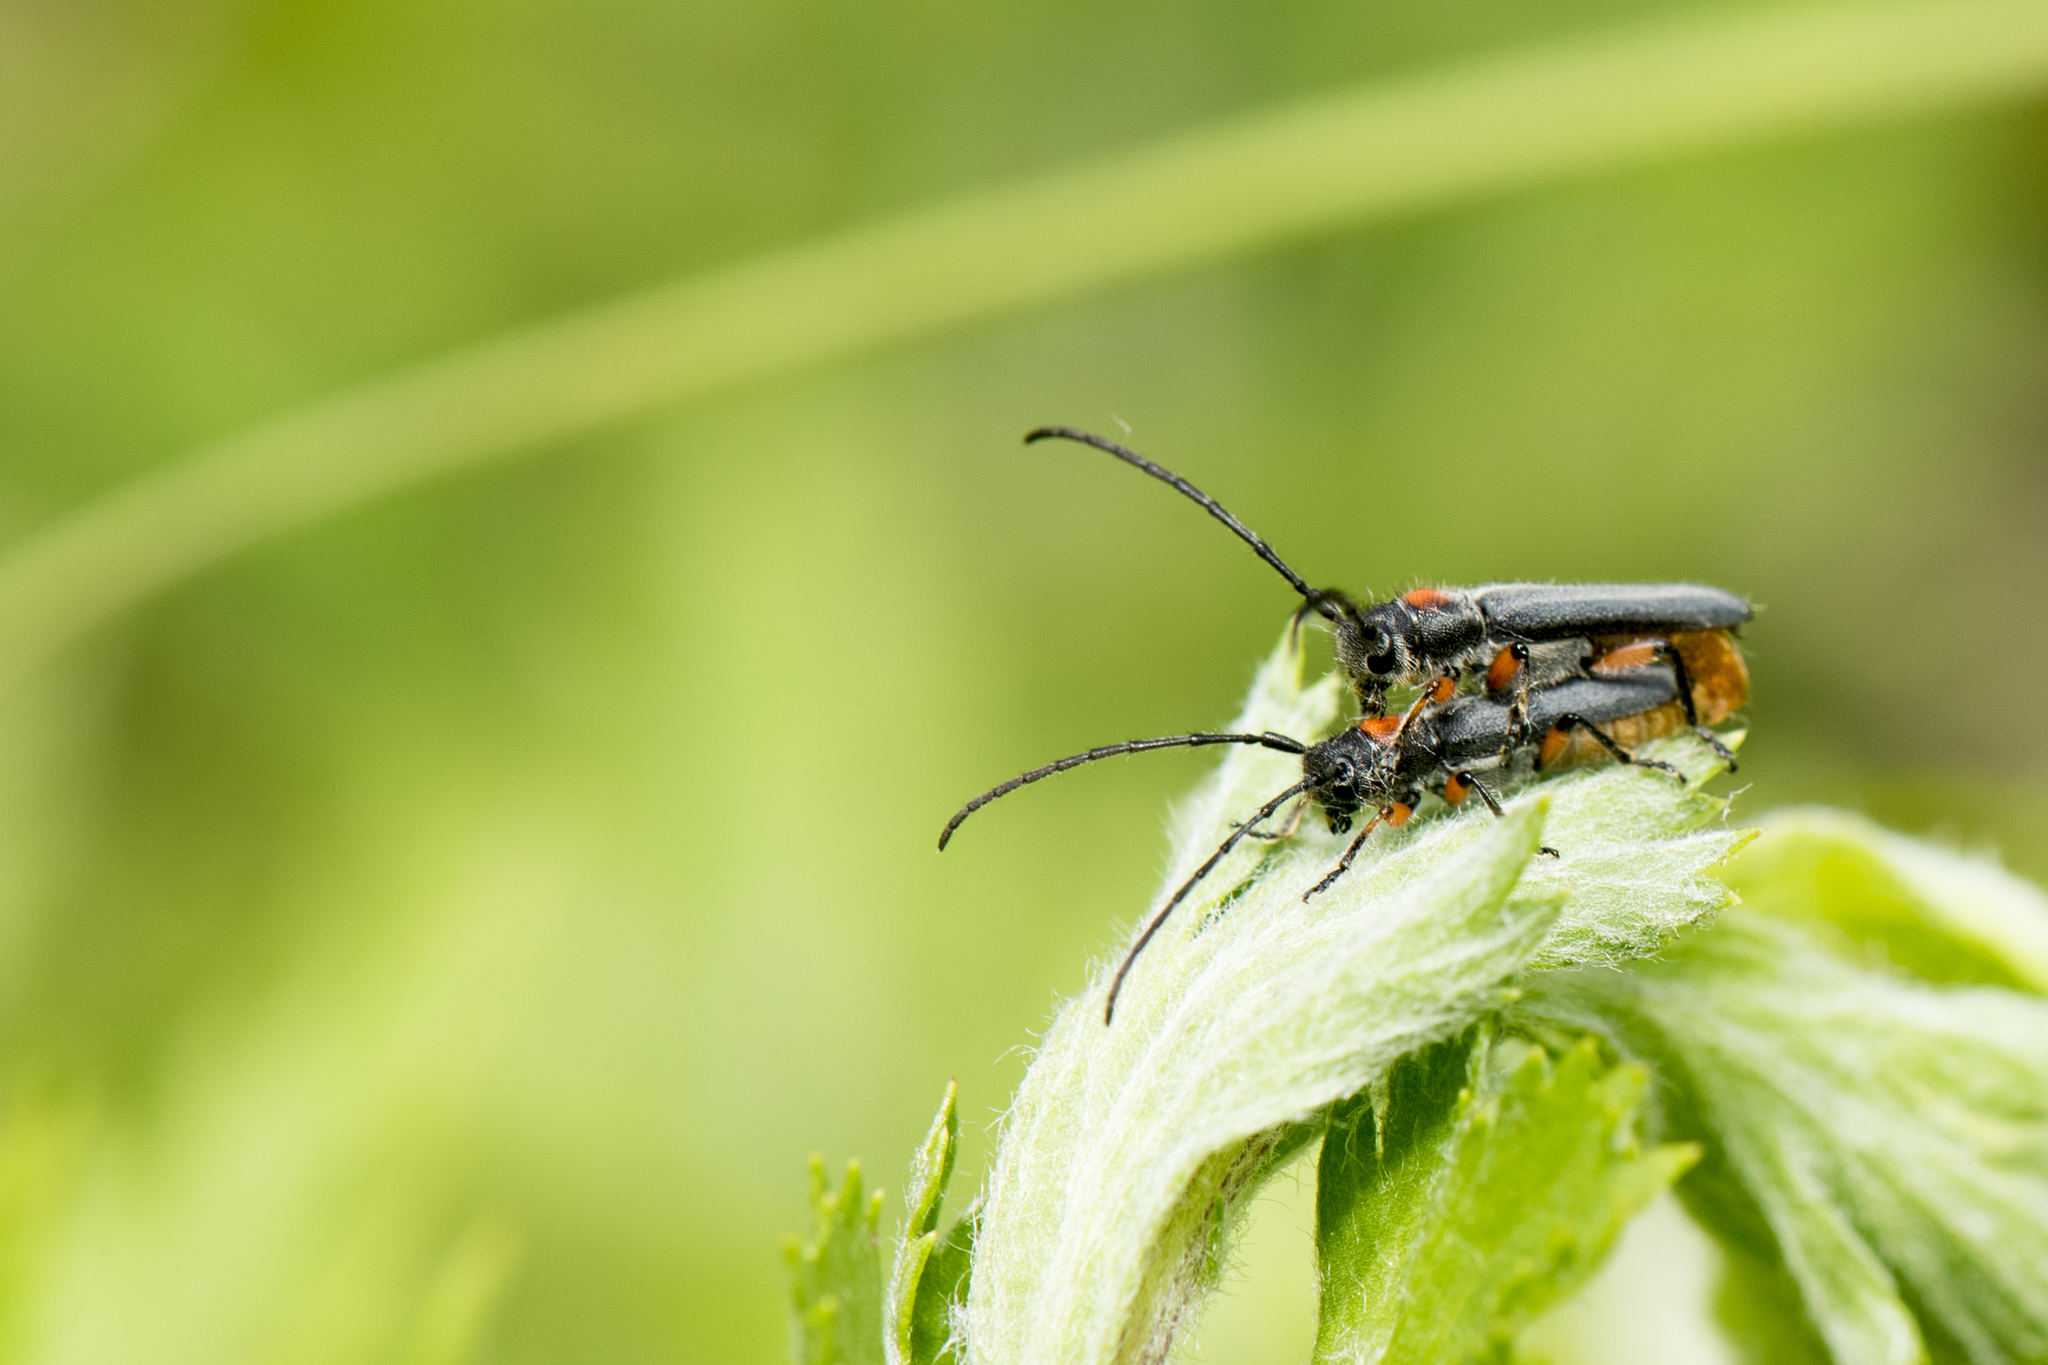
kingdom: Animalia
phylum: Arthropoda
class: Insecta
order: Coleoptera
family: Cerambycidae
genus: Phytoecia
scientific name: Phytoecia rufiventris
